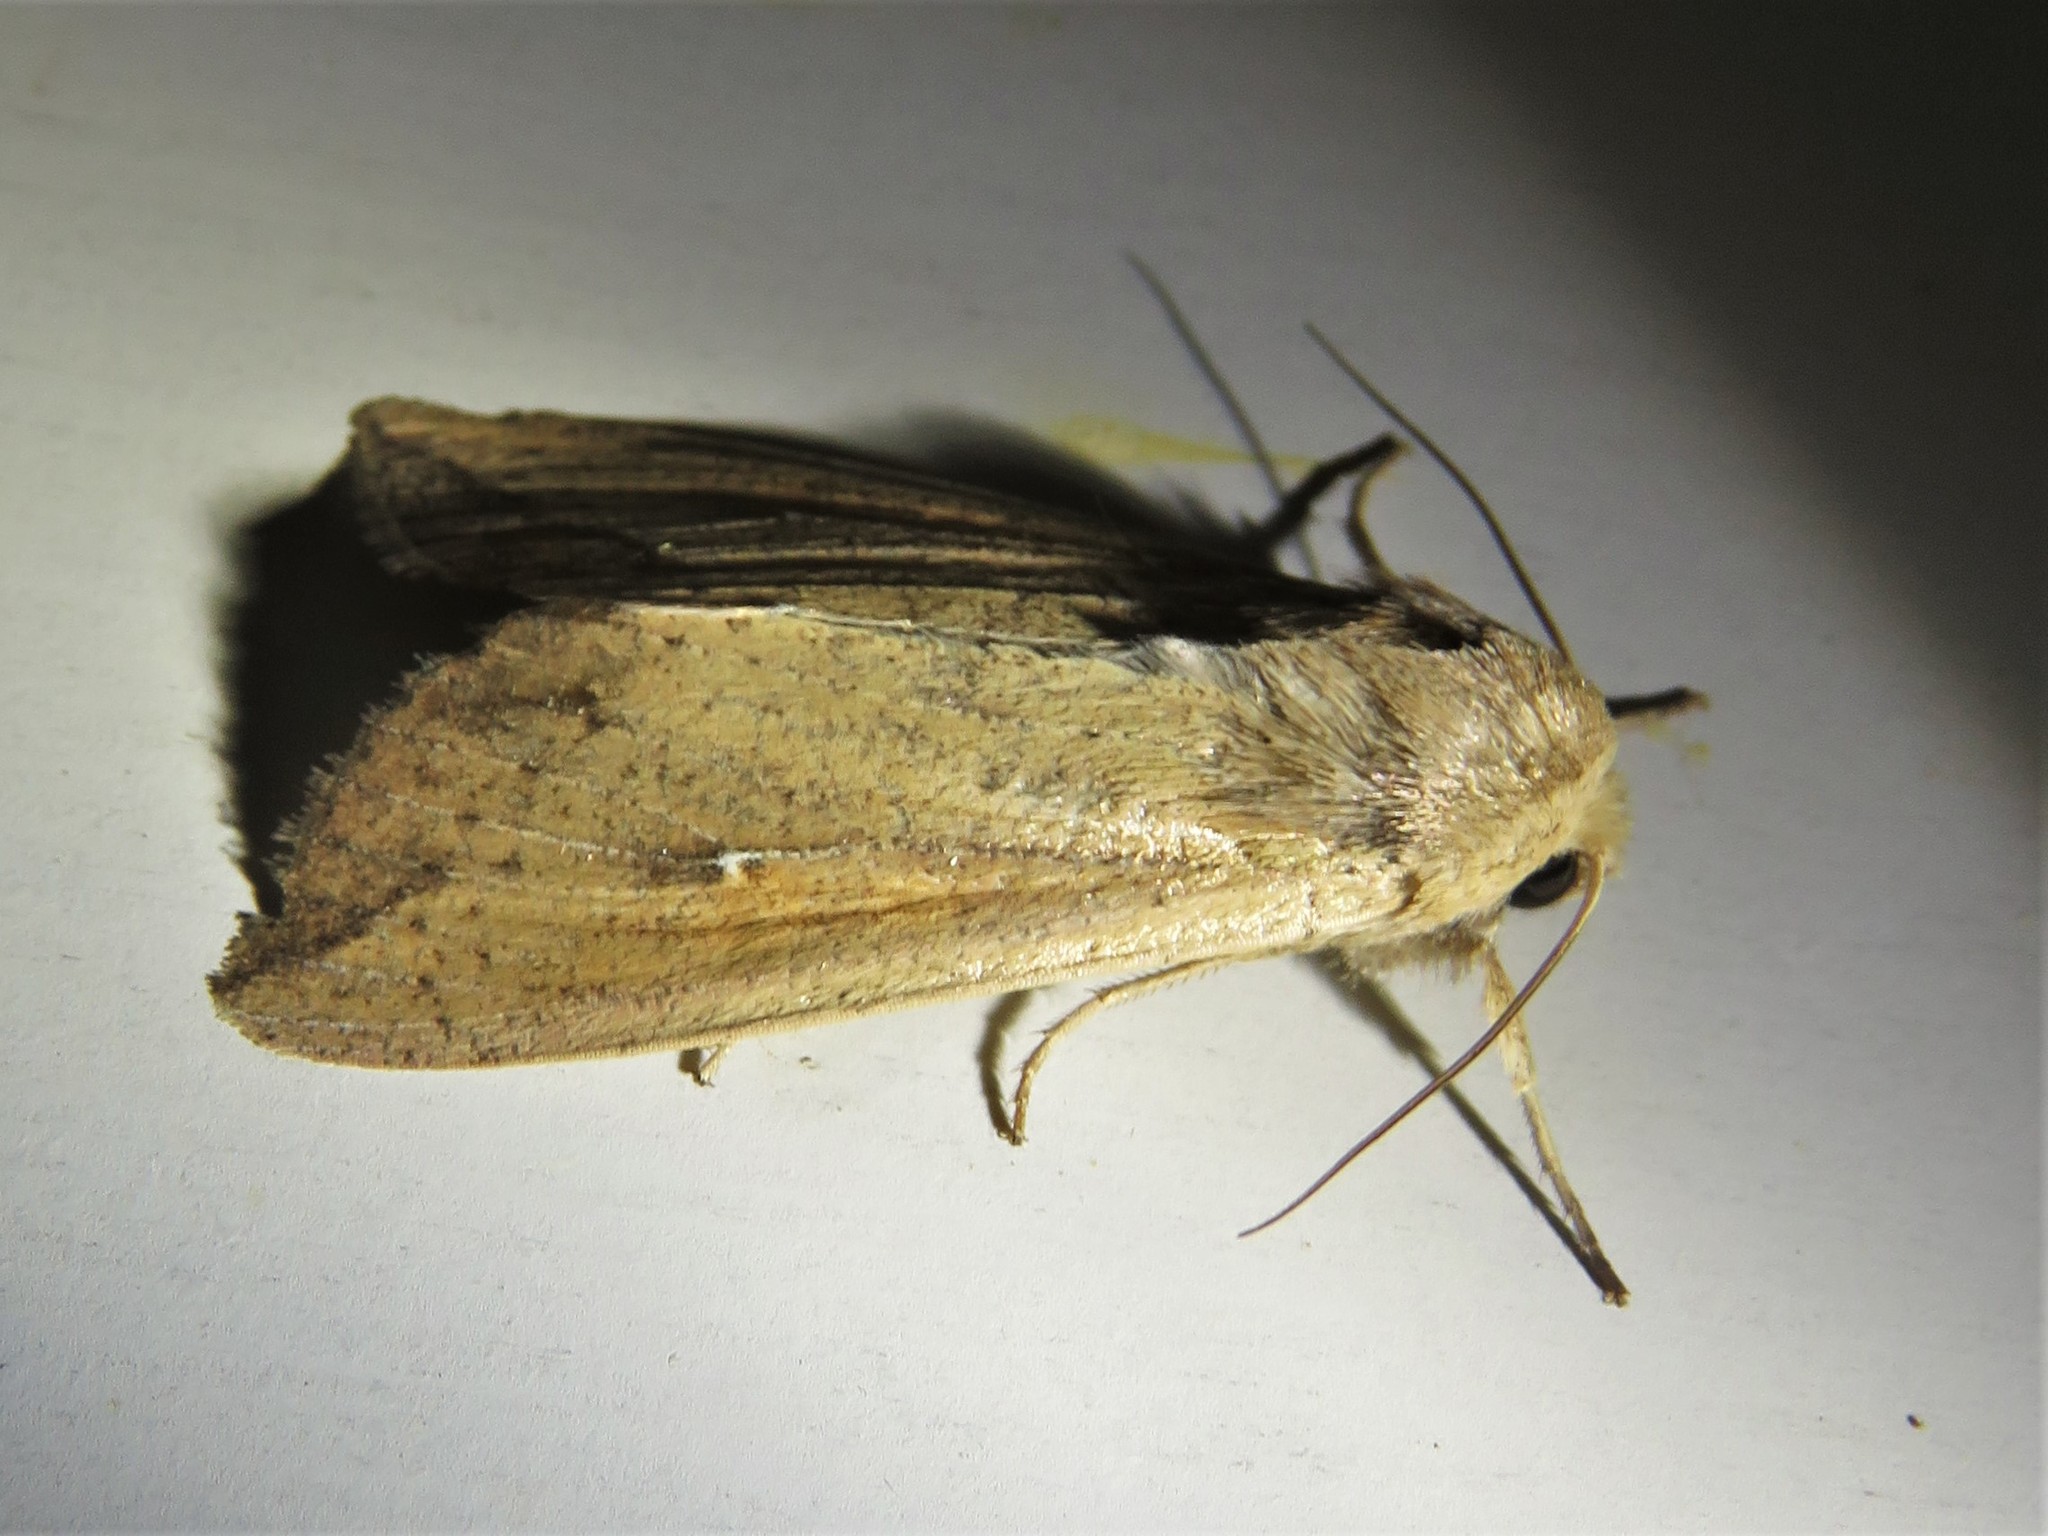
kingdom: Animalia
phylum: Arthropoda
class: Insecta
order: Lepidoptera
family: Noctuidae
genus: Mythimna
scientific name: Mythimna unipuncta
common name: White-speck
